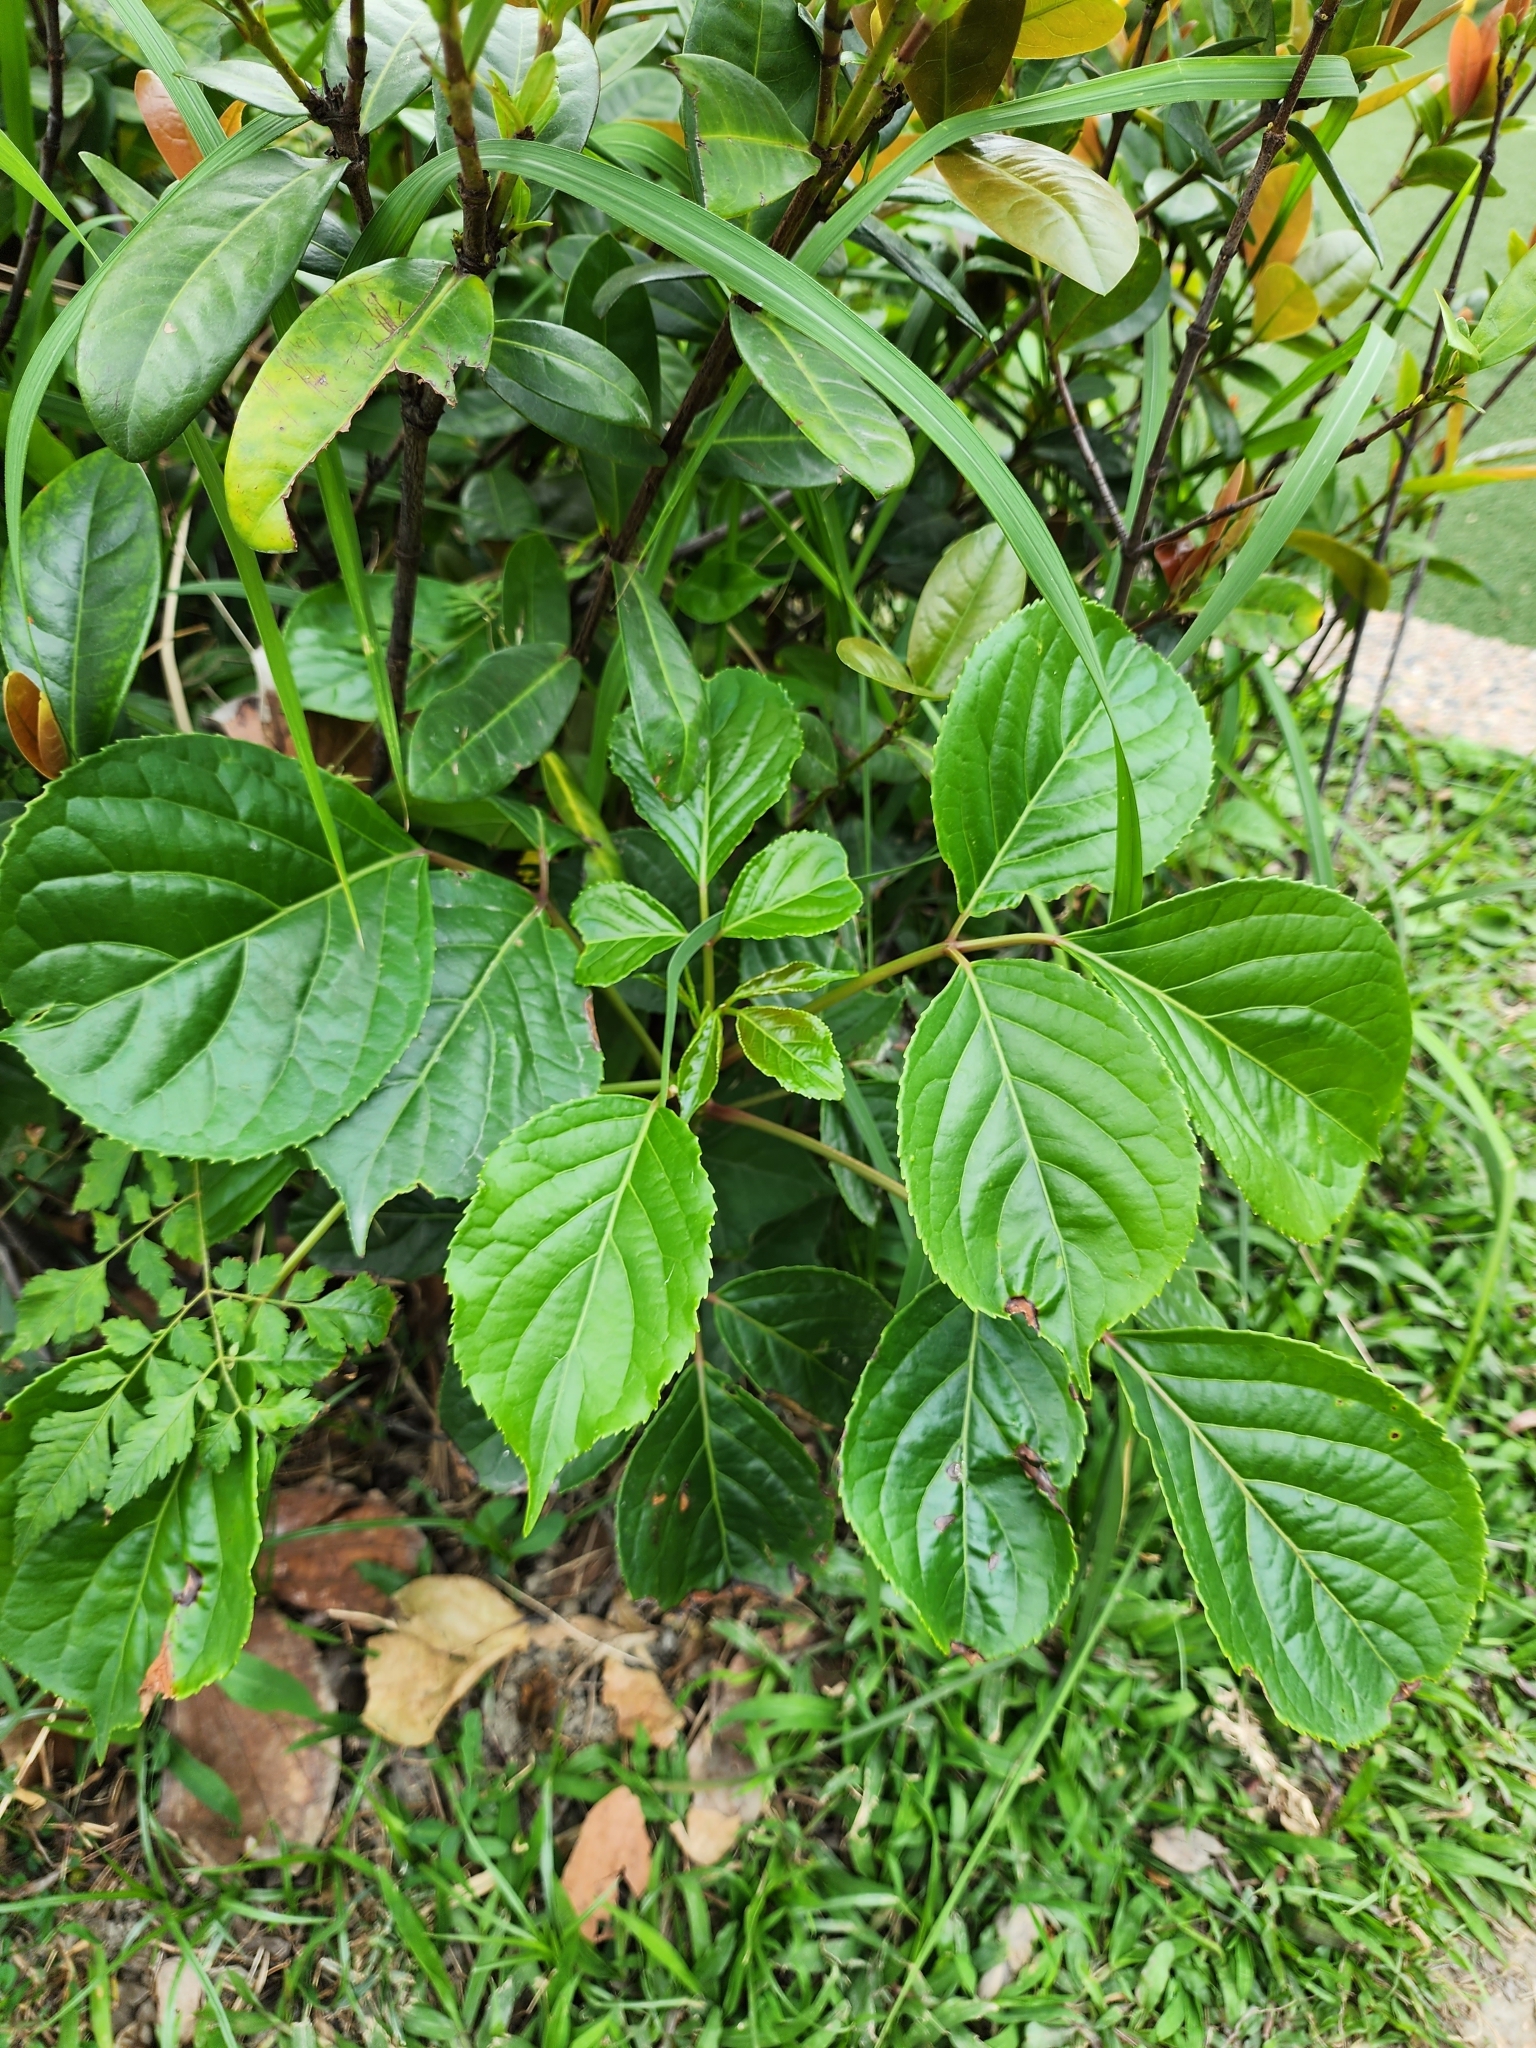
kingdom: Plantae
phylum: Tracheophyta
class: Magnoliopsida
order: Malpighiales
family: Phyllanthaceae
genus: Bischofia
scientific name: Bischofia javanica
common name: Javanese bishopwood
